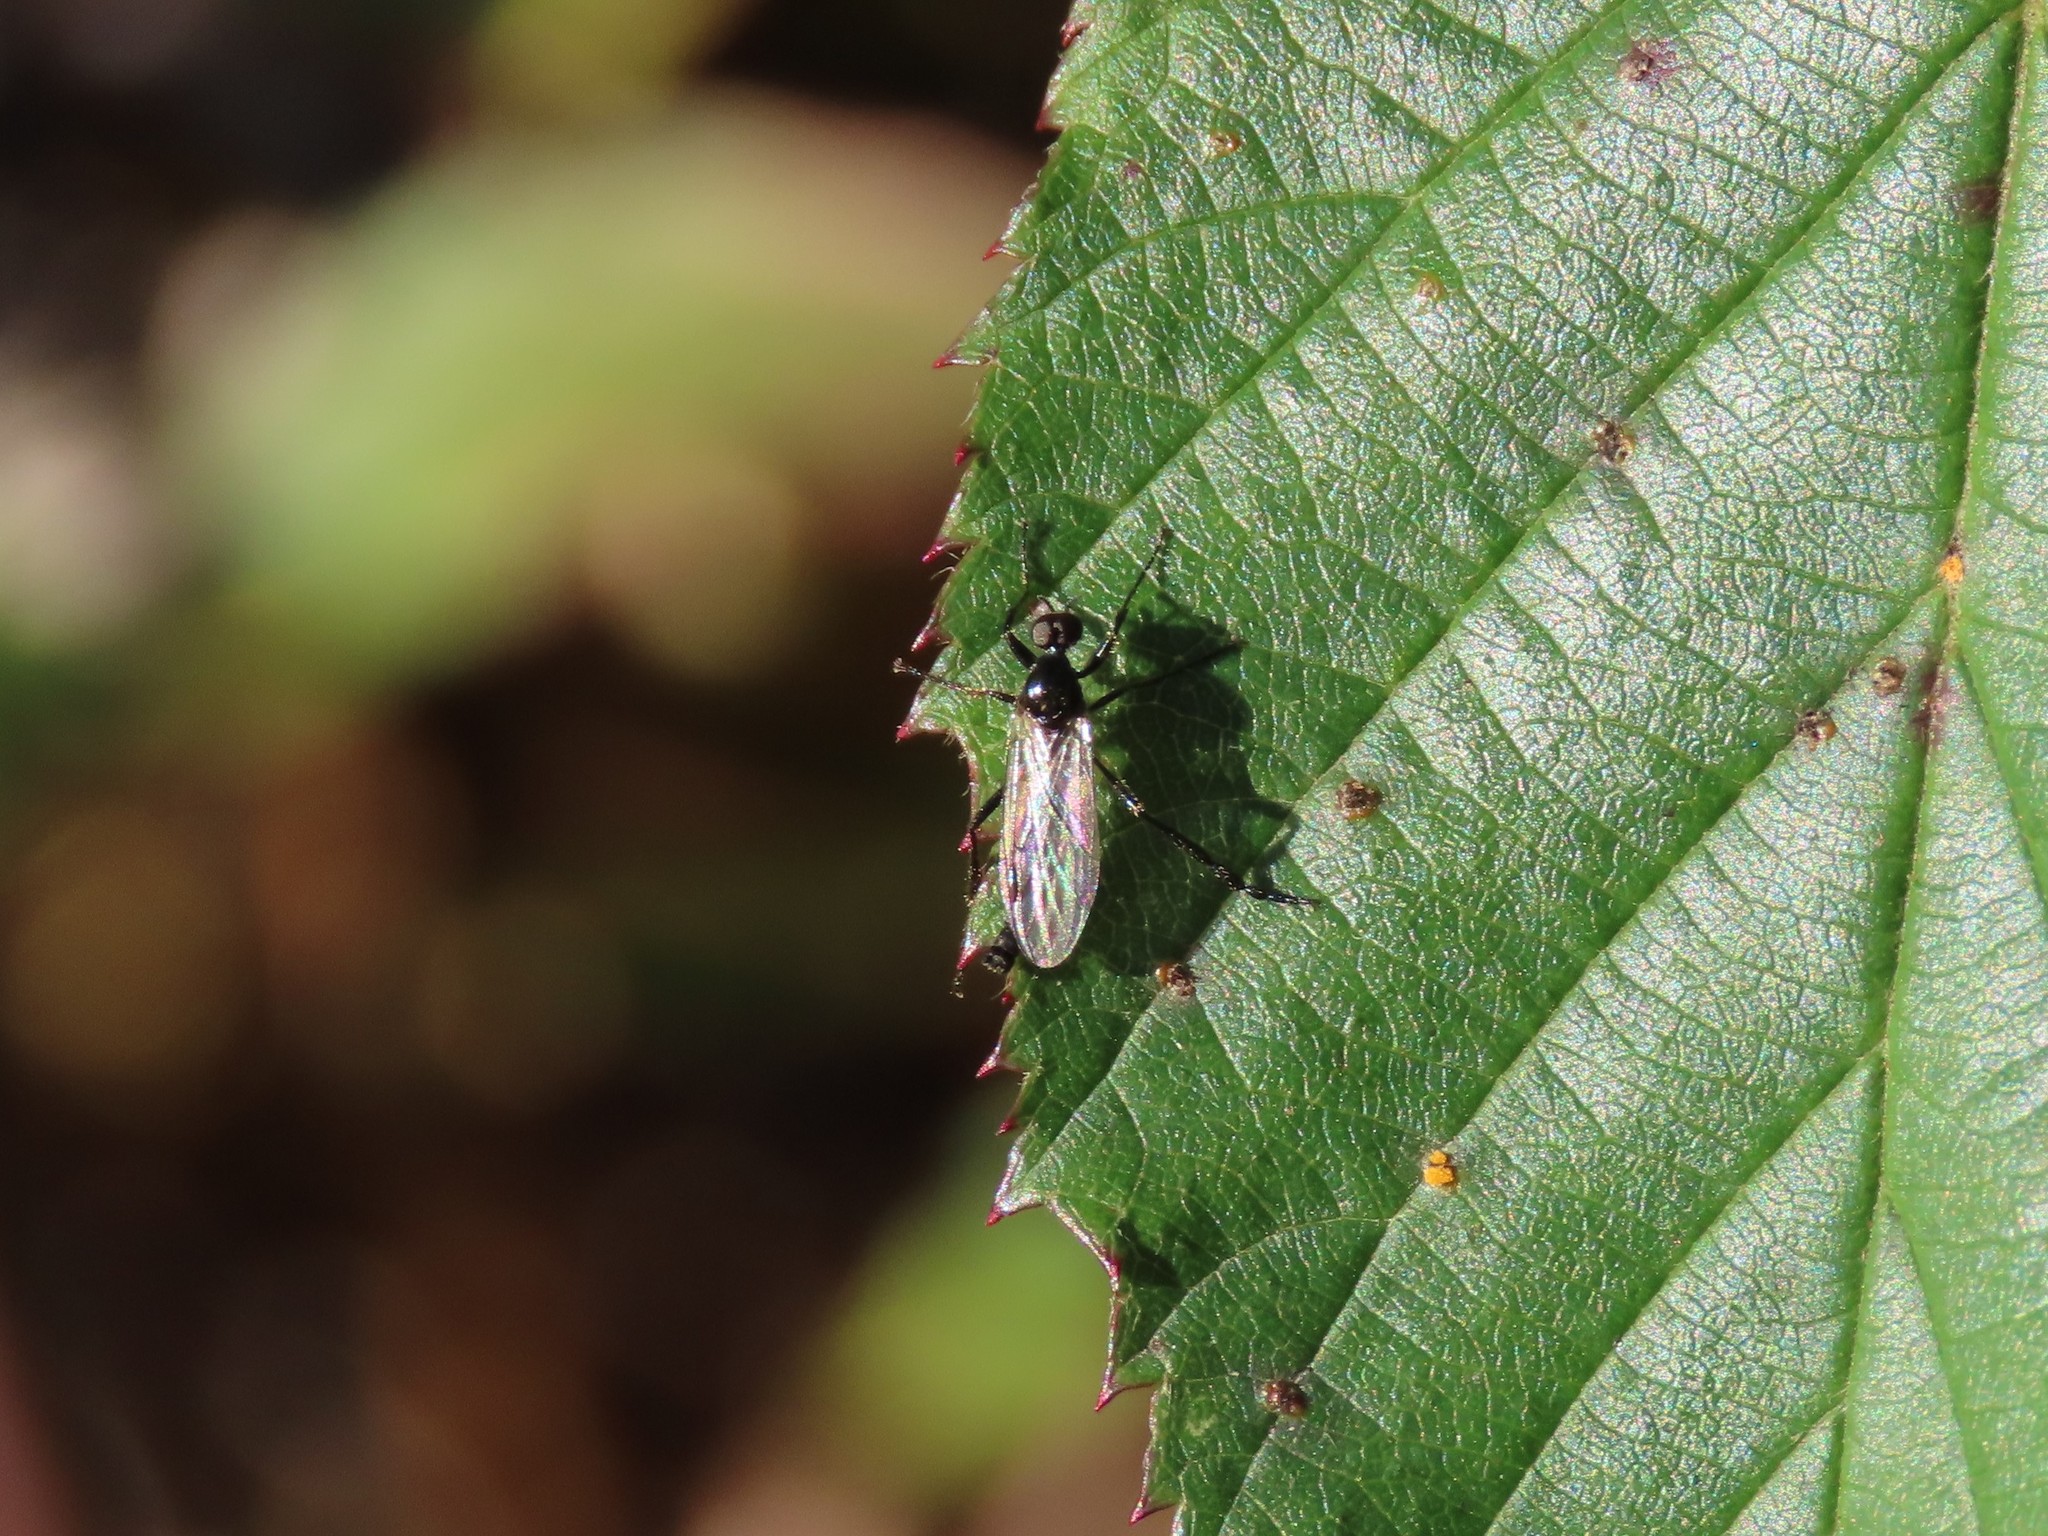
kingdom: Animalia
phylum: Arthropoda
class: Insecta
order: Diptera
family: Bibionidae
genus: Bibio
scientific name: Bibio
